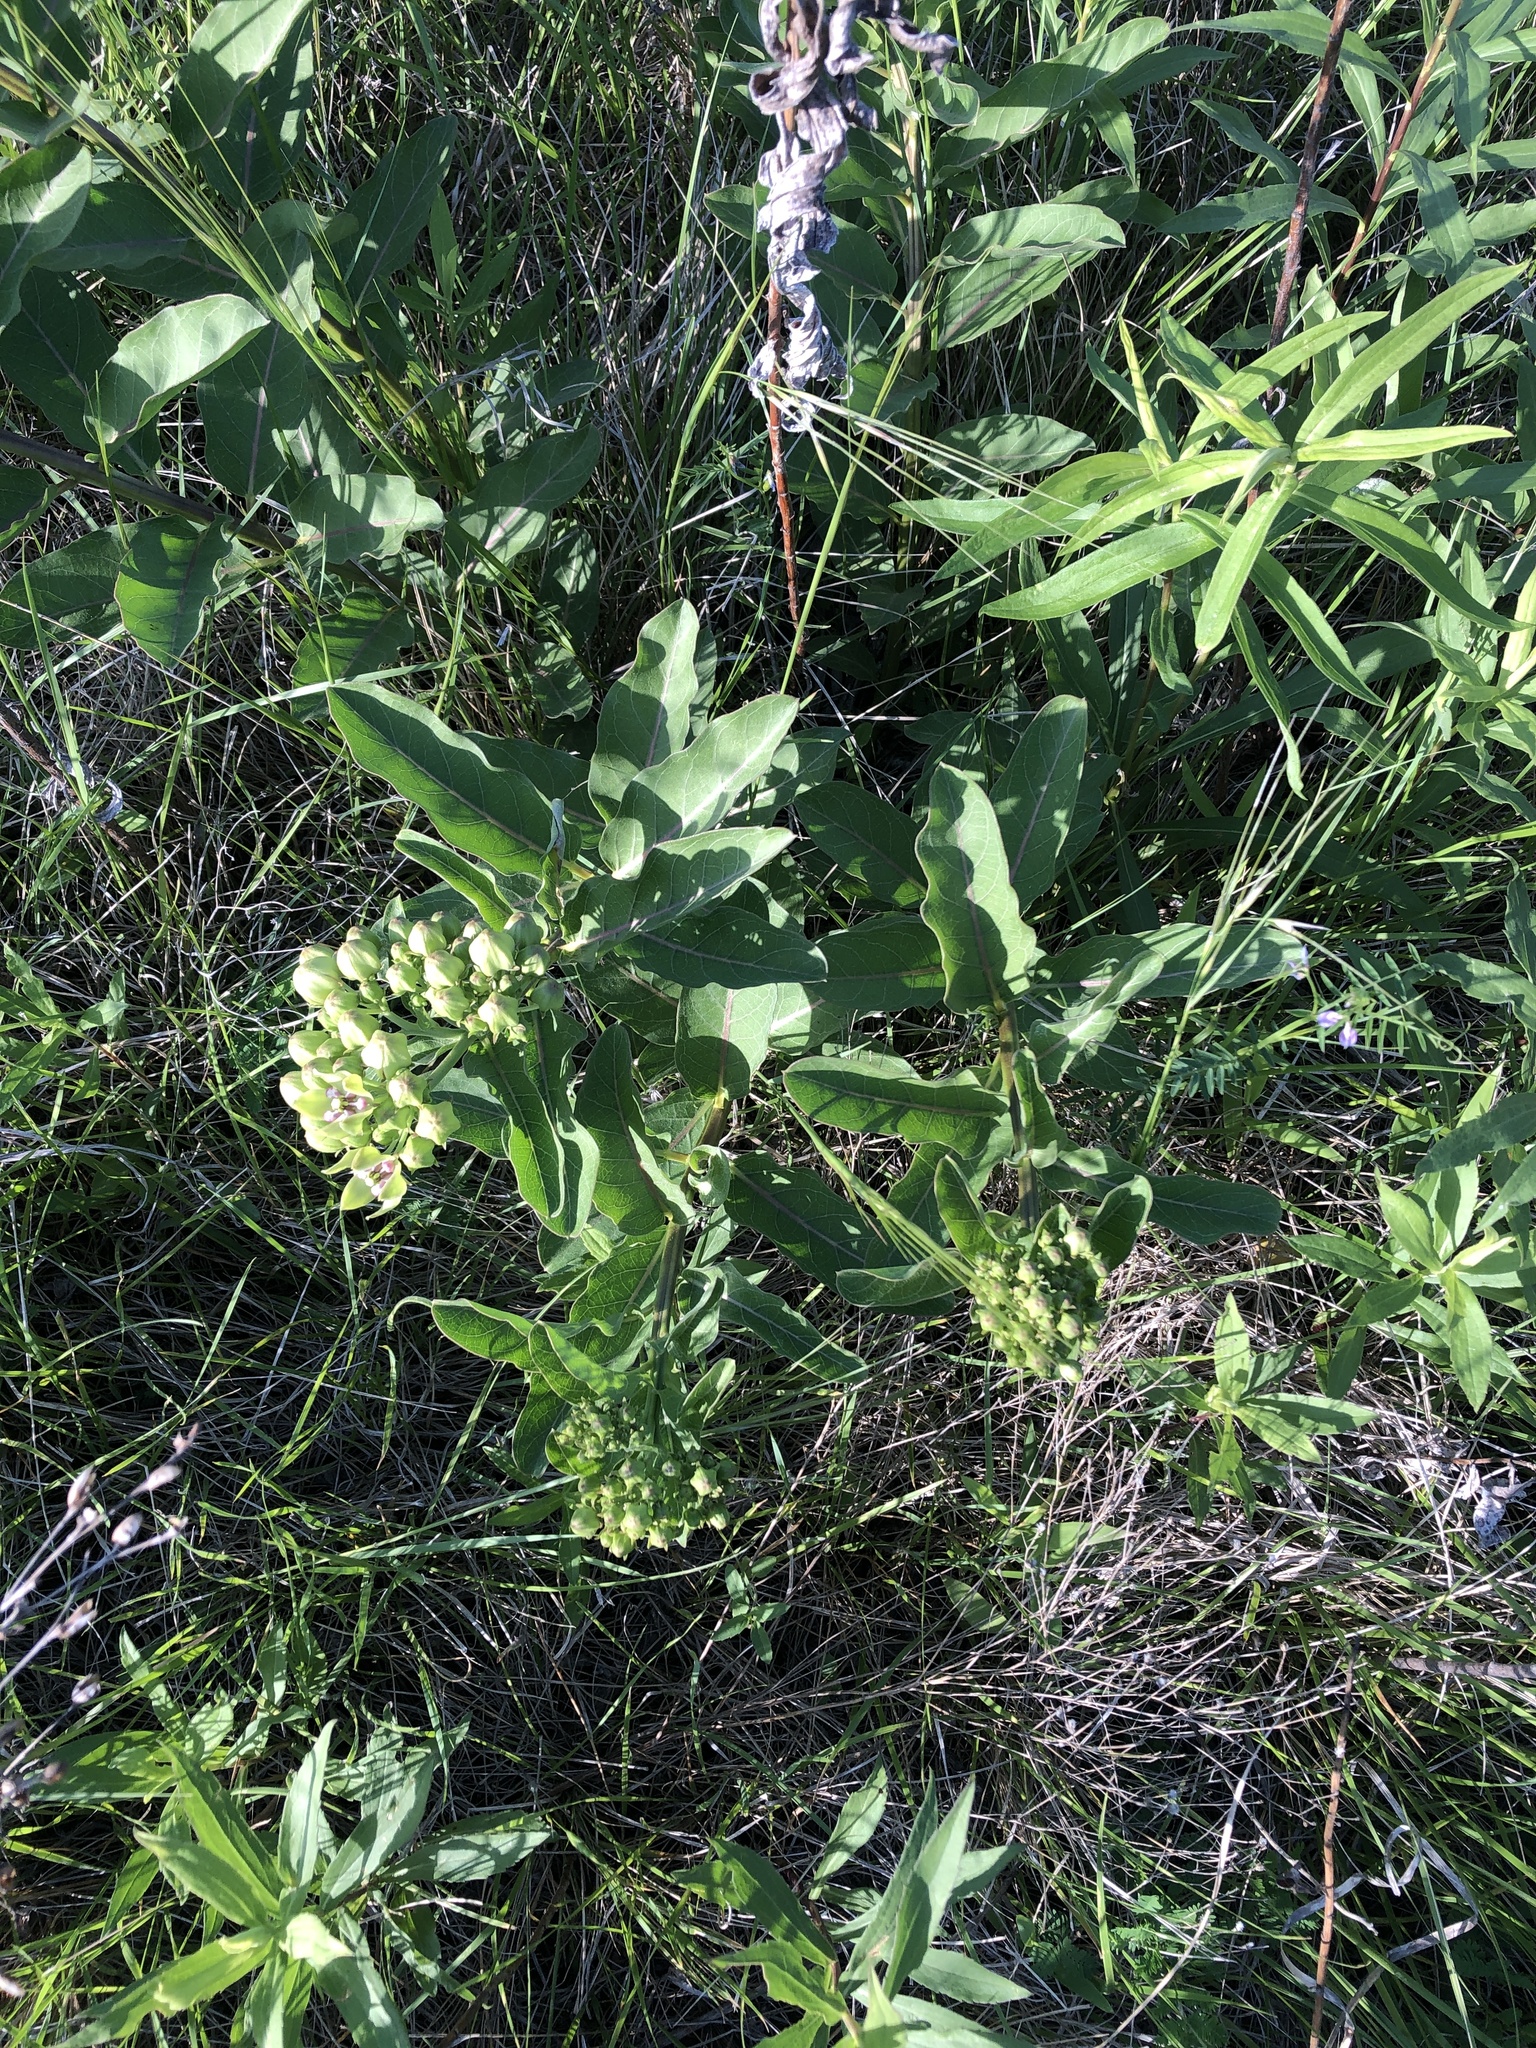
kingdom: Plantae
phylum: Tracheophyta
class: Magnoliopsida
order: Gentianales
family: Apocynaceae
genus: Asclepias
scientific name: Asclepias viridis
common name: Antelope-horns
